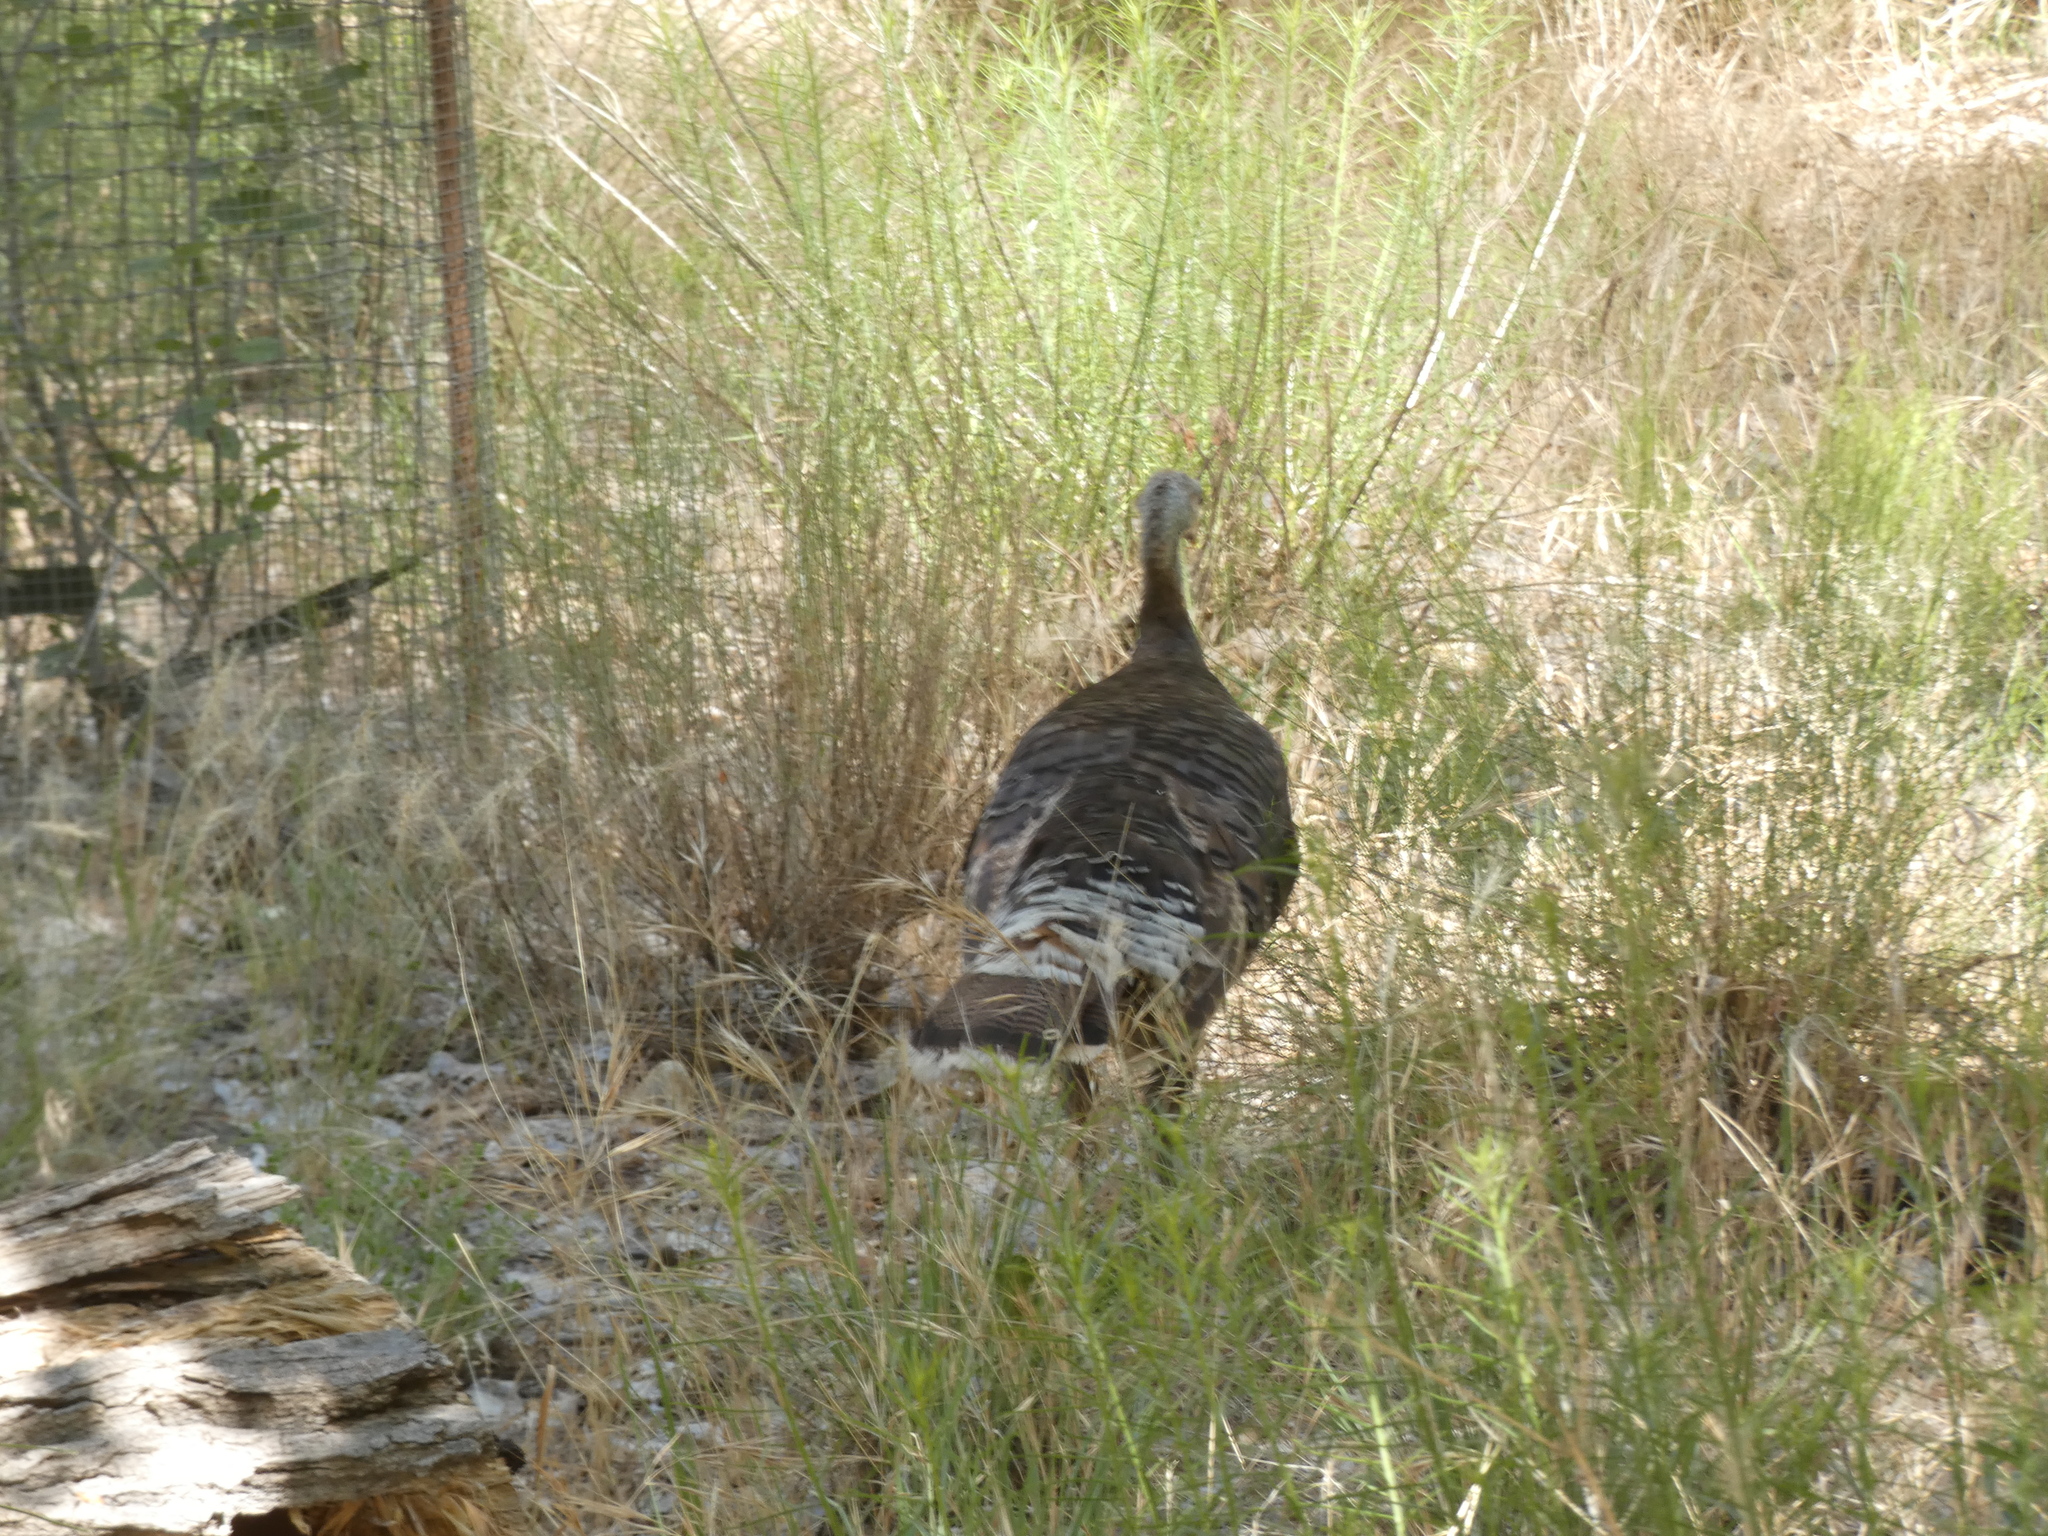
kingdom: Animalia
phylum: Chordata
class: Aves
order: Galliformes
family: Phasianidae
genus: Meleagris
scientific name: Meleagris gallopavo
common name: Wild turkey
